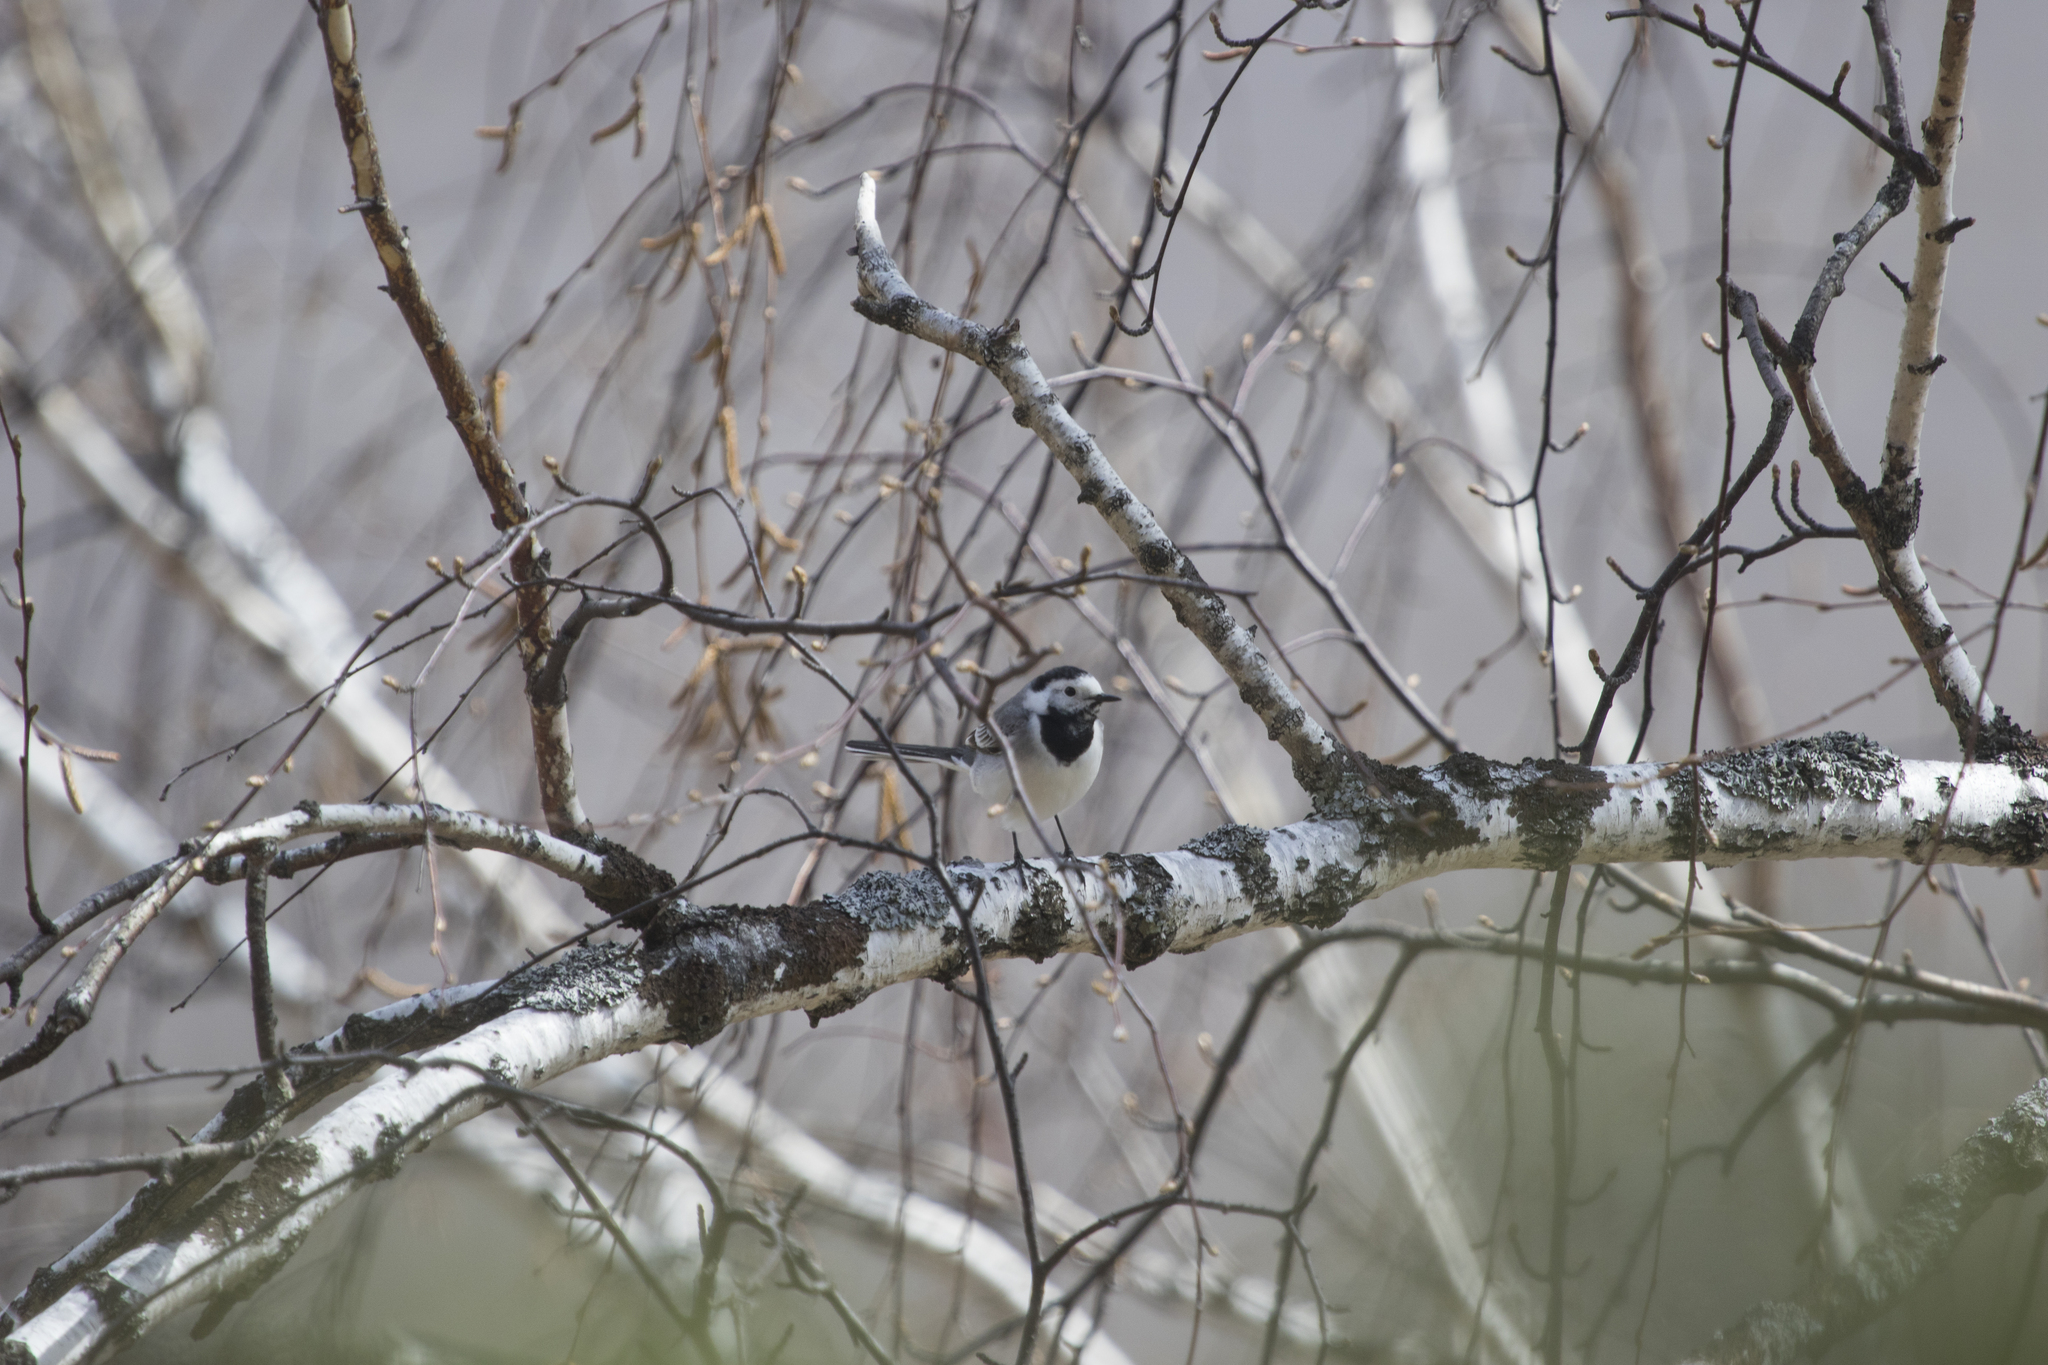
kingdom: Animalia
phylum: Chordata
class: Aves
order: Passeriformes
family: Motacillidae
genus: Motacilla
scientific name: Motacilla alba
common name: White wagtail
